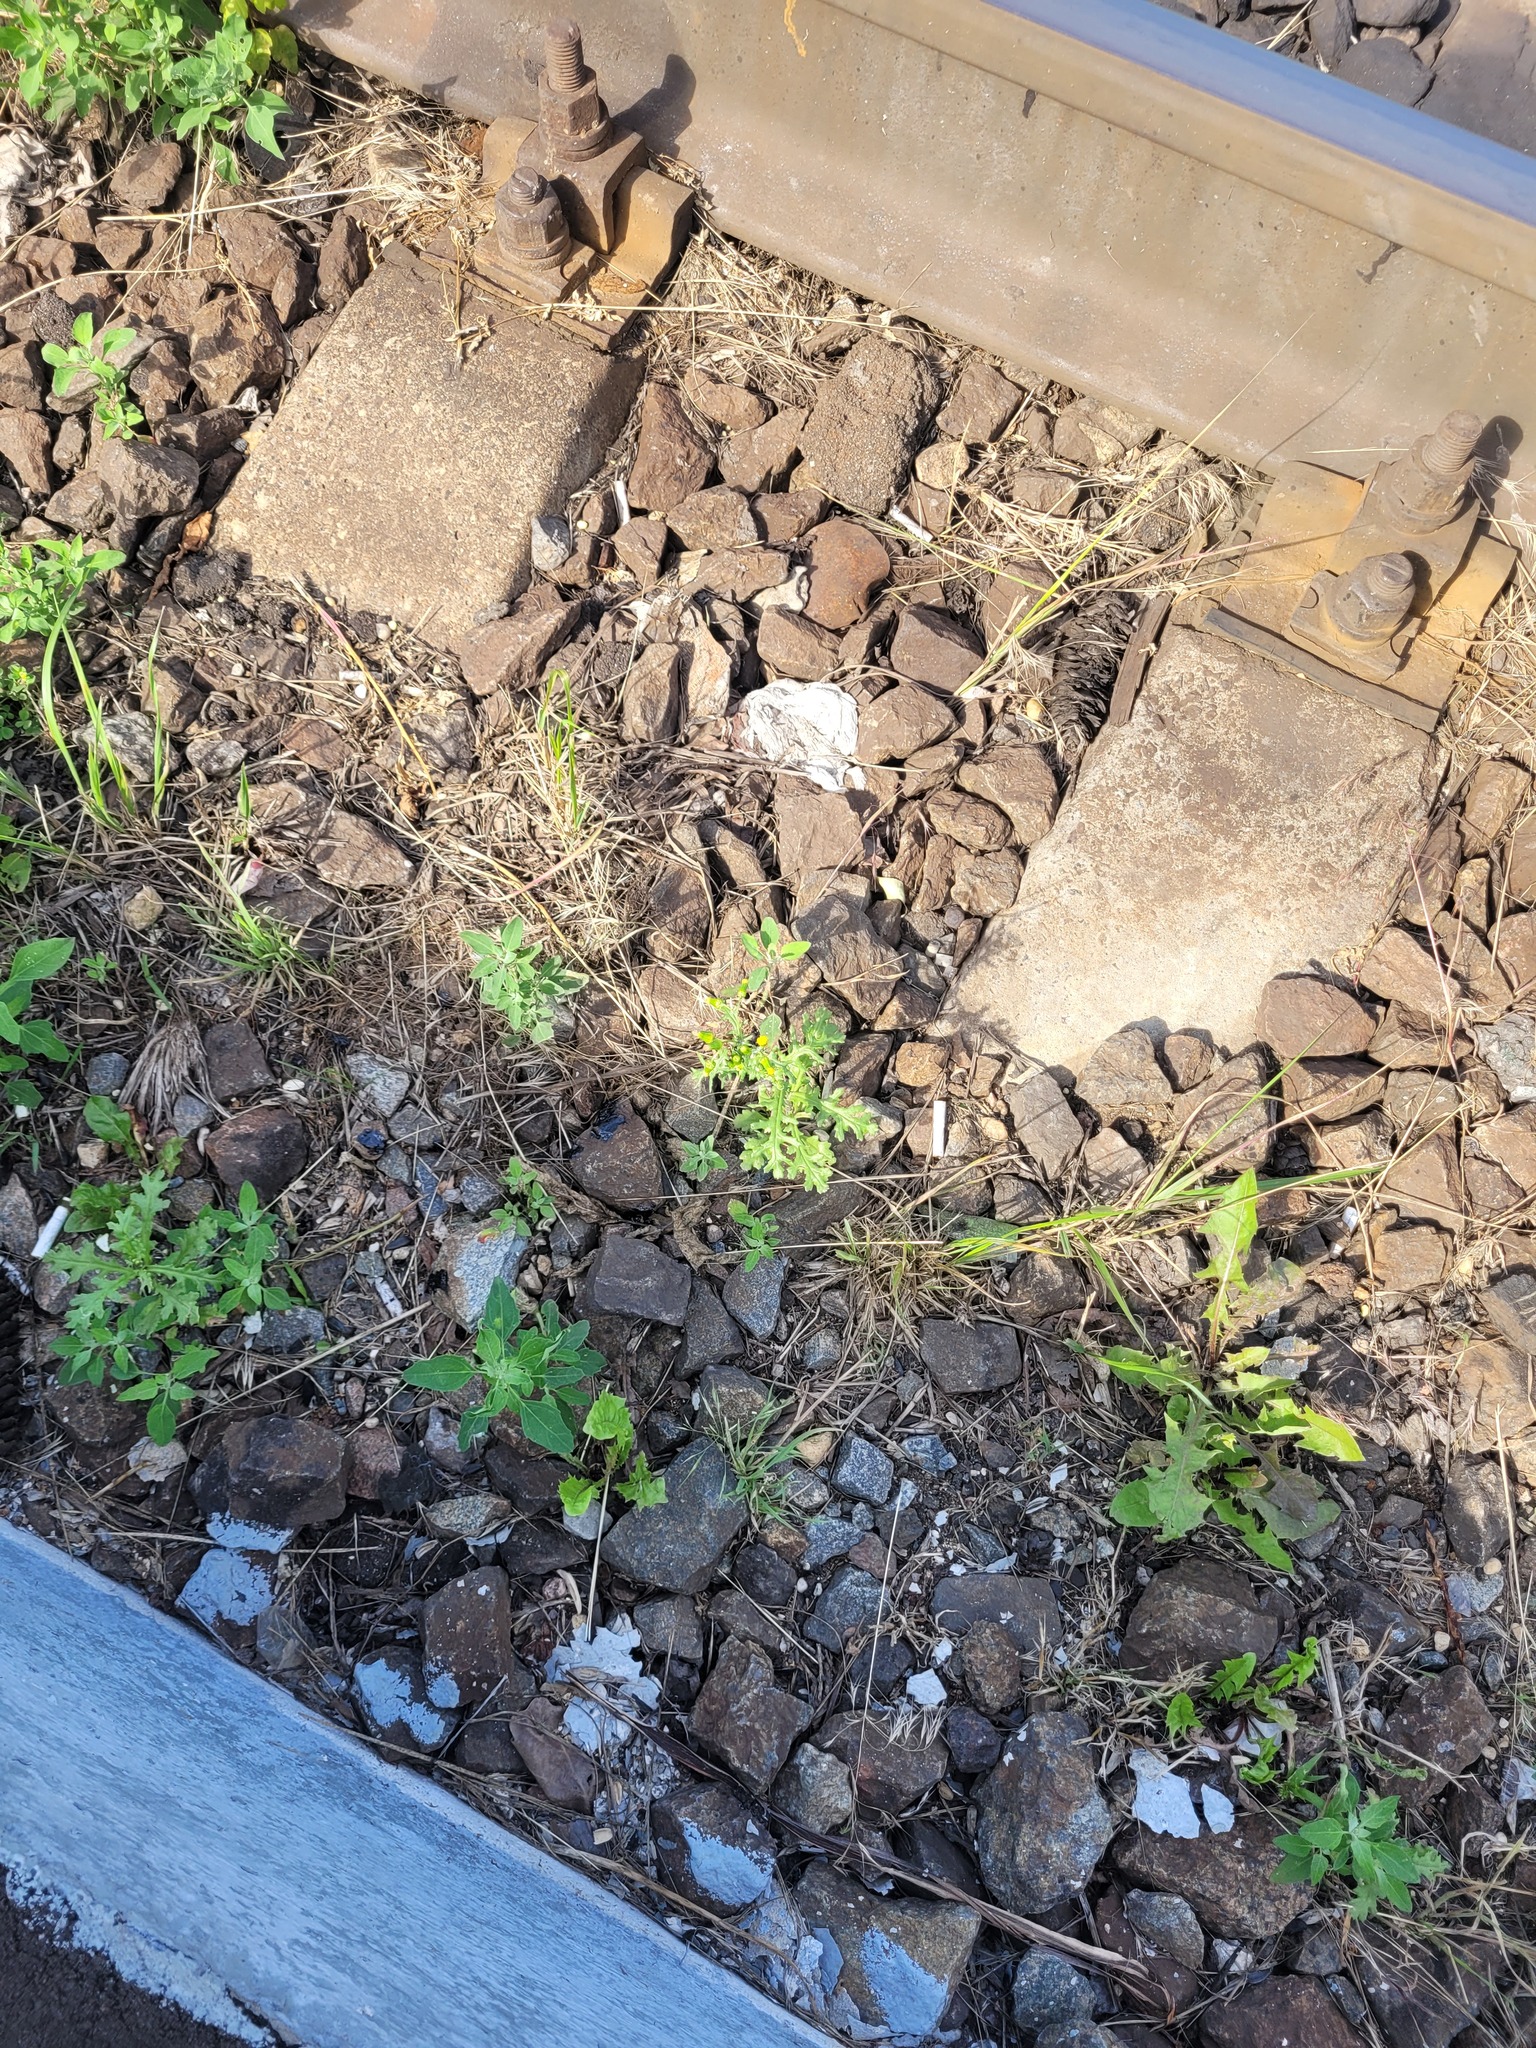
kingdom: Plantae
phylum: Tracheophyta
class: Magnoliopsida
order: Asterales
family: Asteraceae
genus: Senecio
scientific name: Senecio vulgaris
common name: Old-man-in-the-spring
